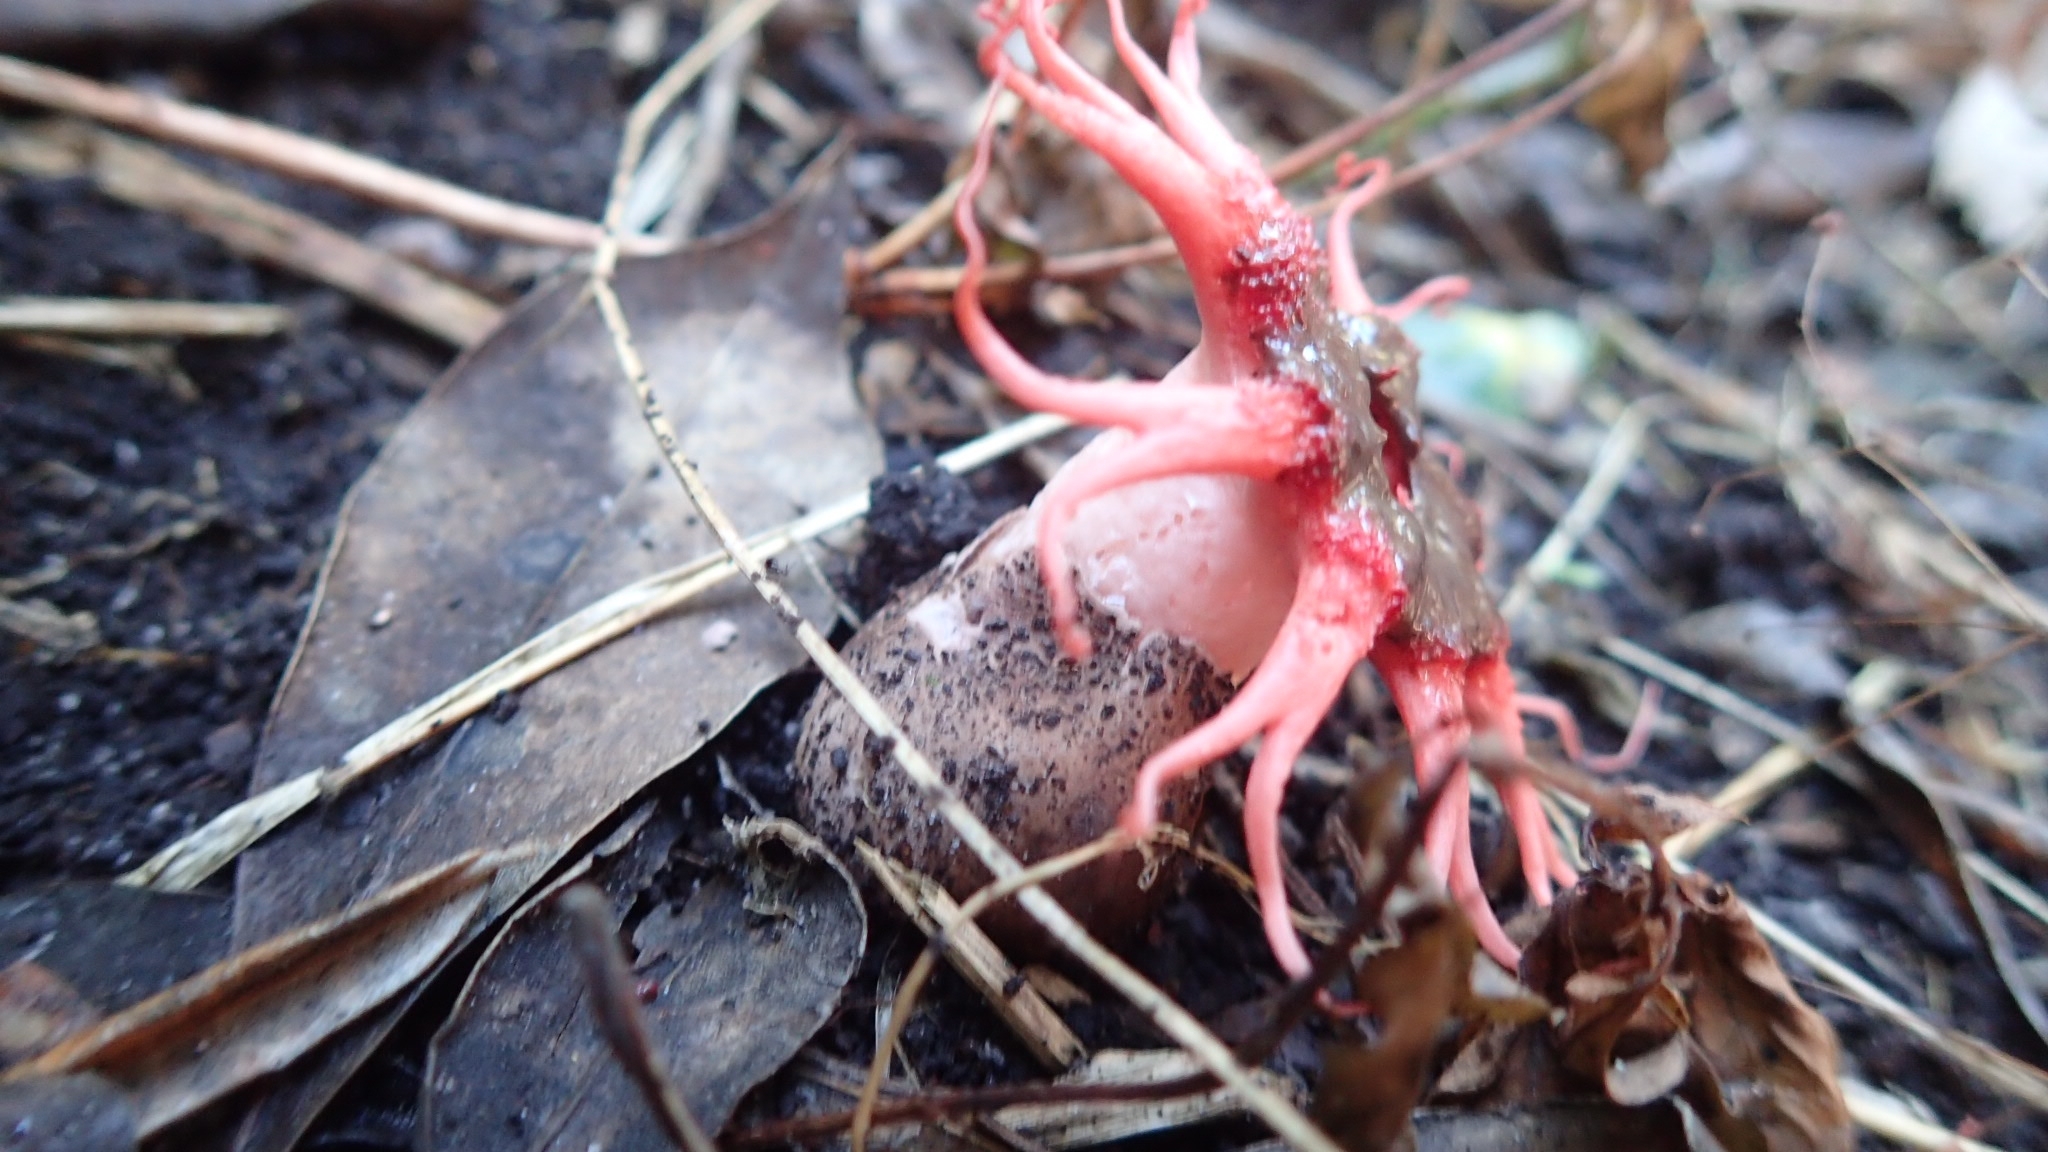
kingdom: Fungi
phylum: Basidiomycota
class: Agaricomycetes
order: Phallales
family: Phallaceae
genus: Aseroe
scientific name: Aseroe rubra
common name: Starfish fungus
